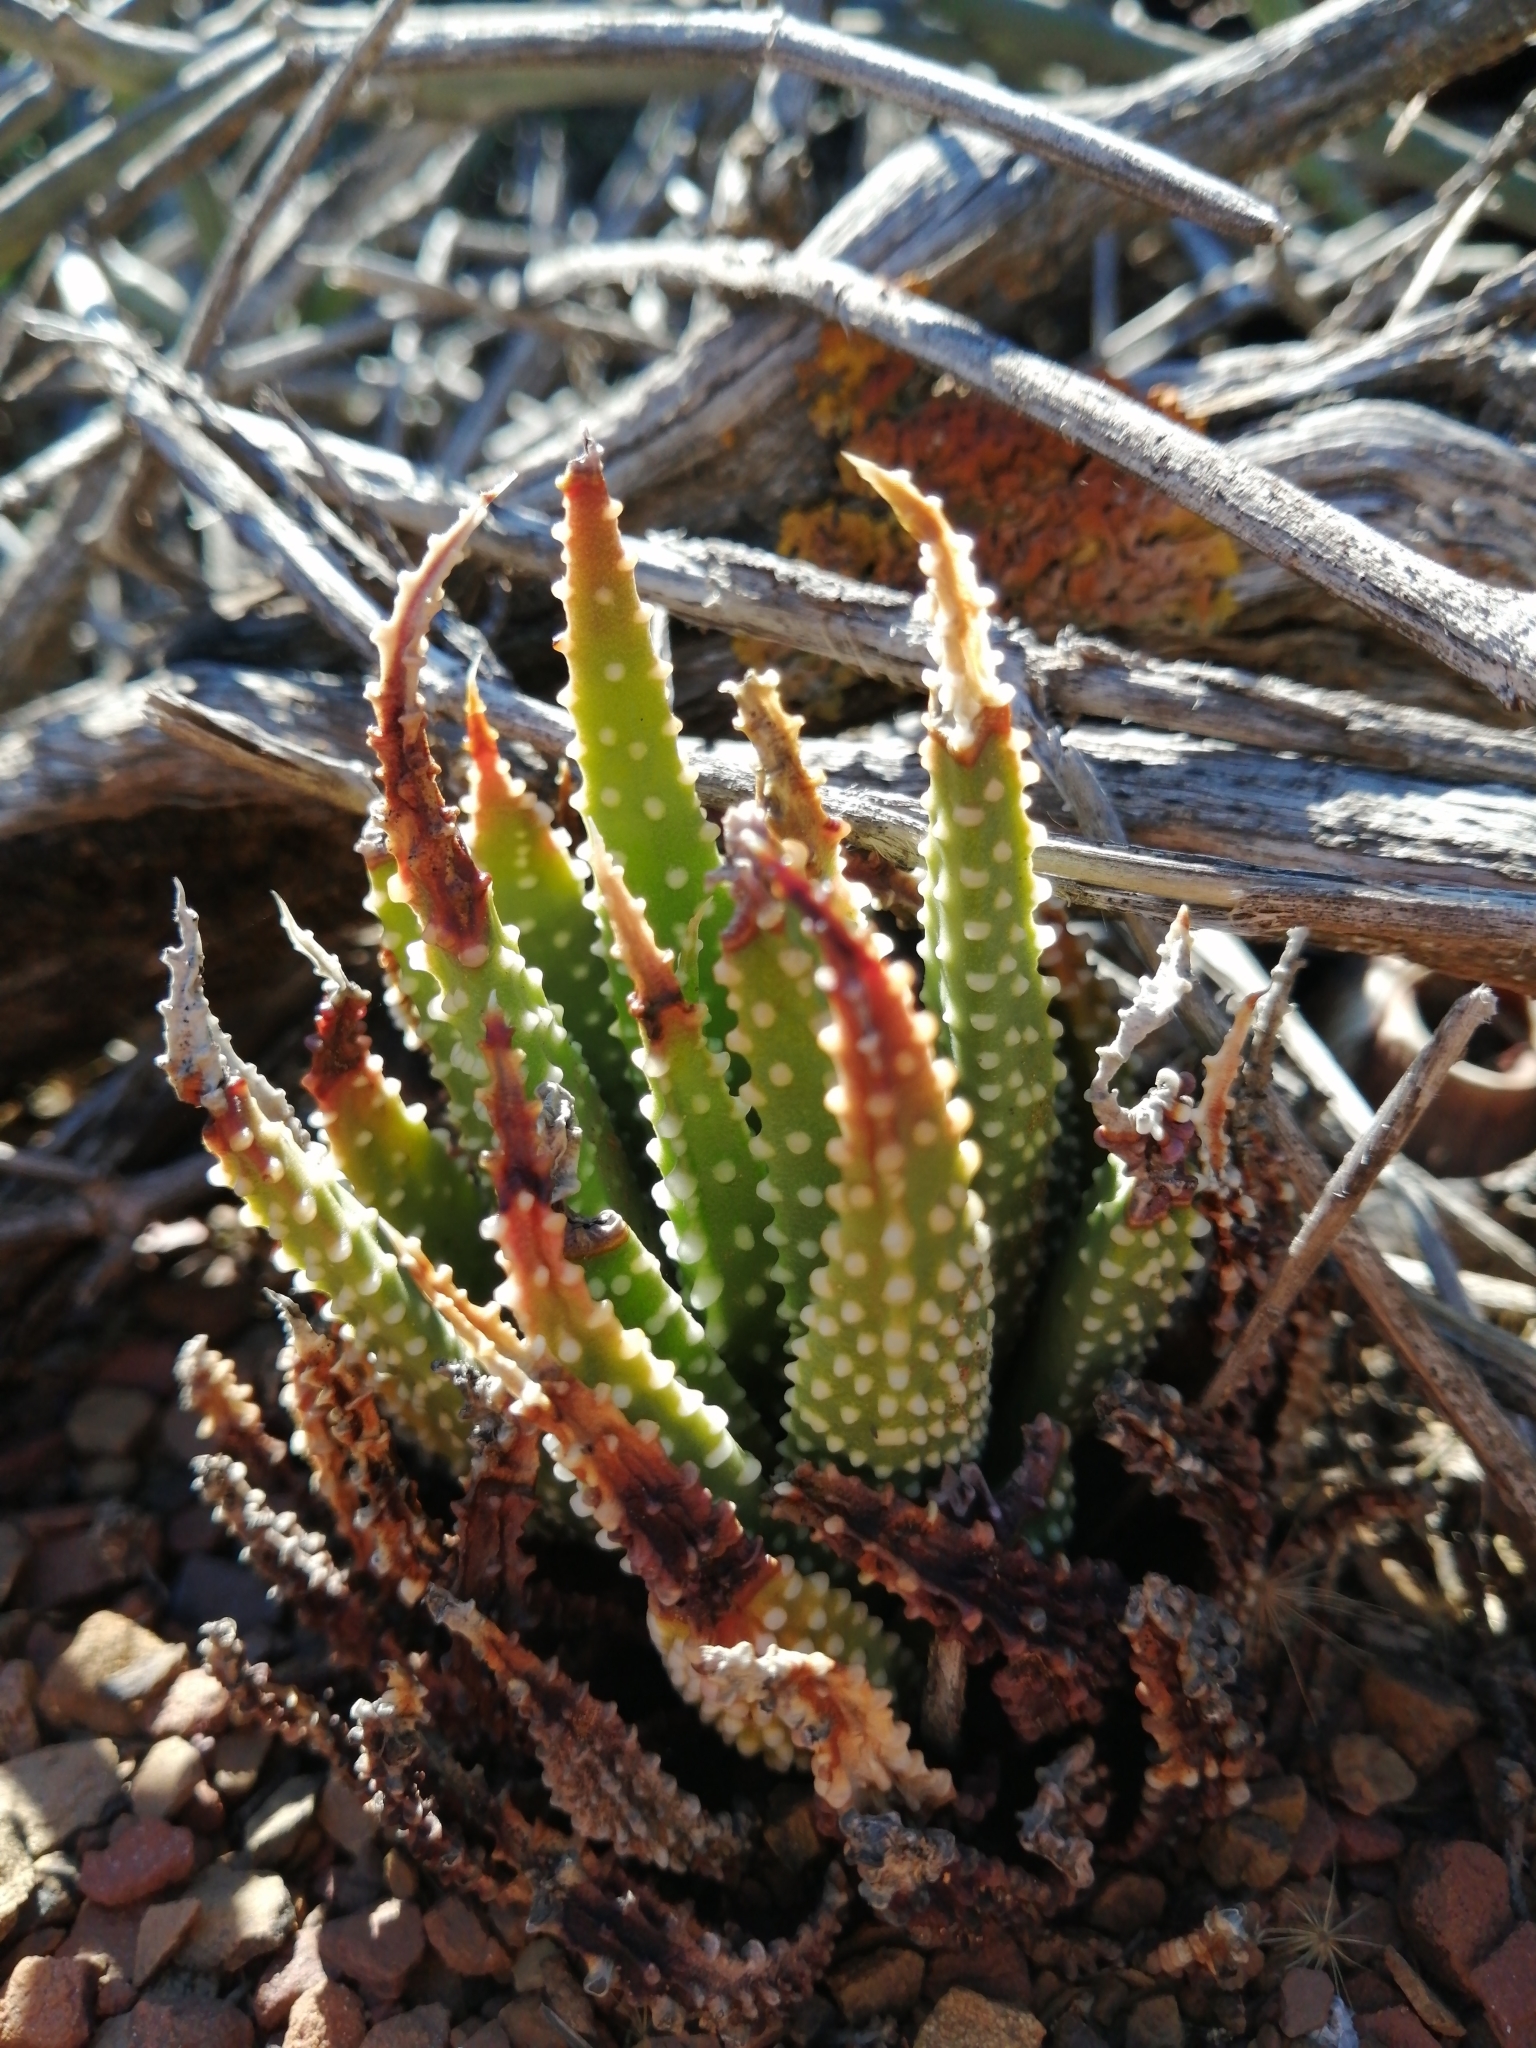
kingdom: Plantae
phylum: Tracheophyta
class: Liliopsida
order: Asparagales
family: Asphodelaceae
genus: Tulista
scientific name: Tulista pumila
